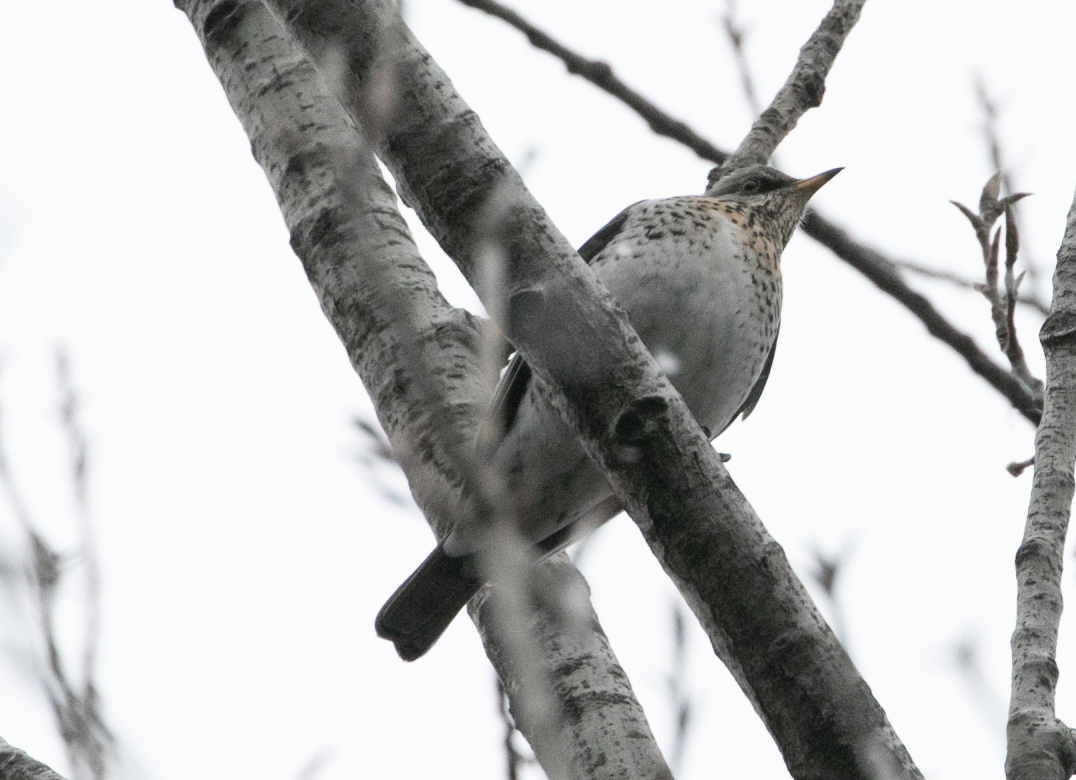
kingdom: Animalia
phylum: Chordata
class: Aves
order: Passeriformes
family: Turdidae
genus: Turdus
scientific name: Turdus pilaris
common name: Fieldfare
